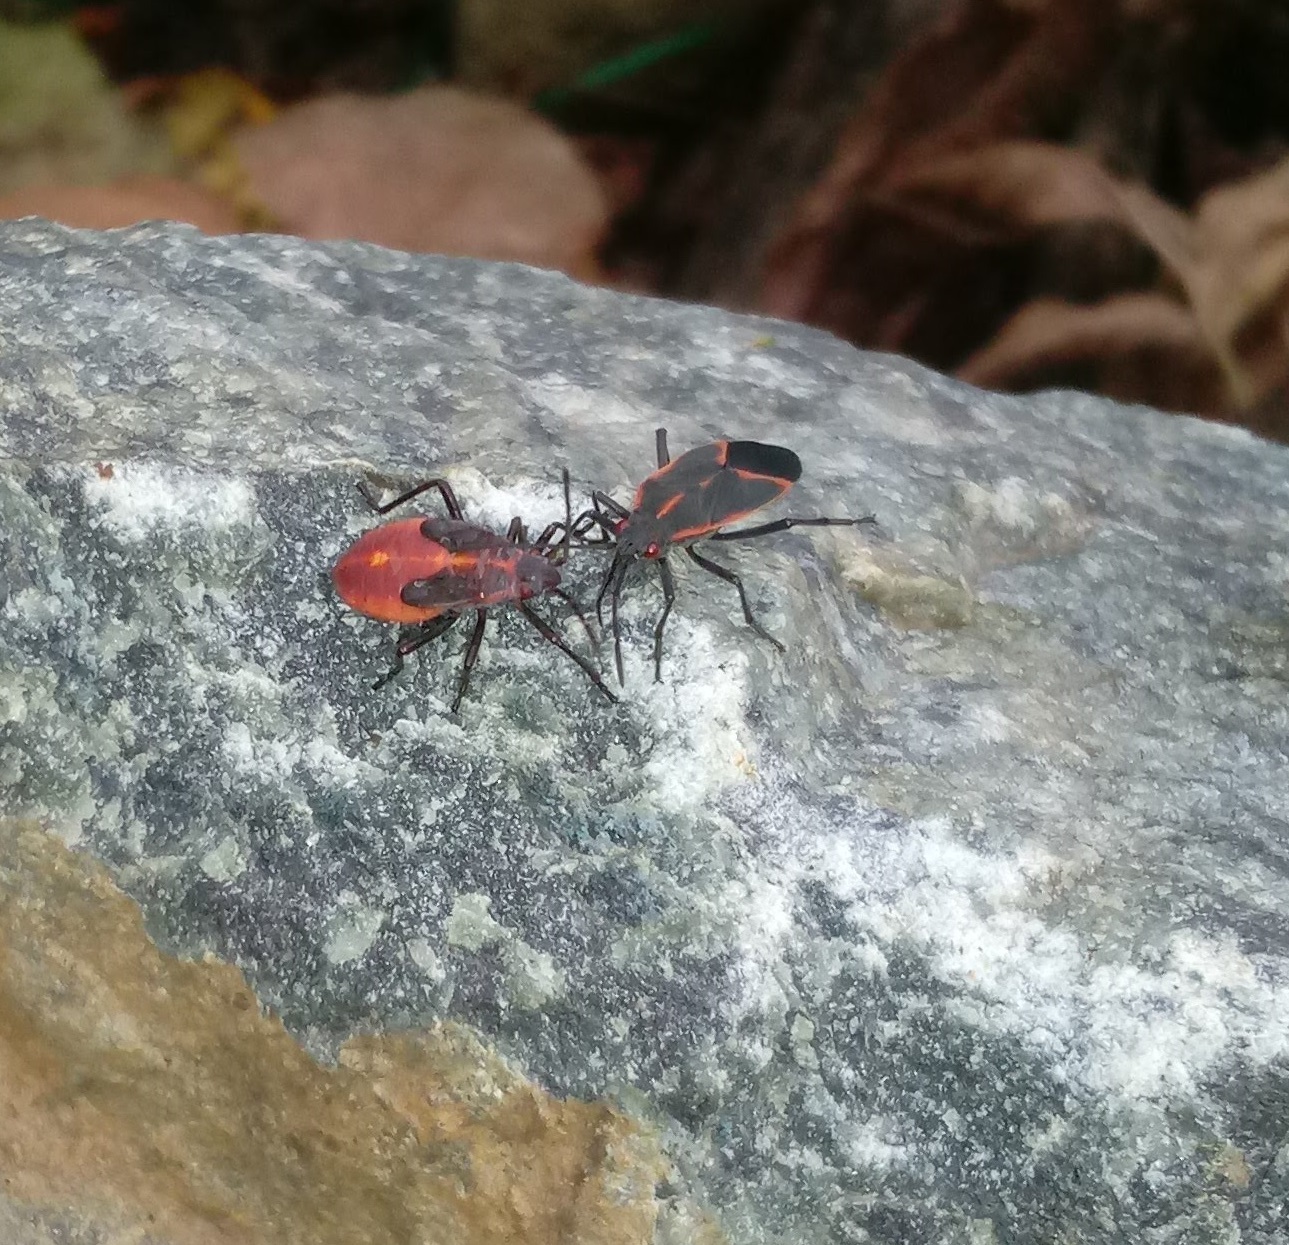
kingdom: Animalia
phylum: Arthropoda
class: Insecta
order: Hemiptera
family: Rhopalidae
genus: Boisea
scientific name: Boisea trivittata
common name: Boxelder bug
